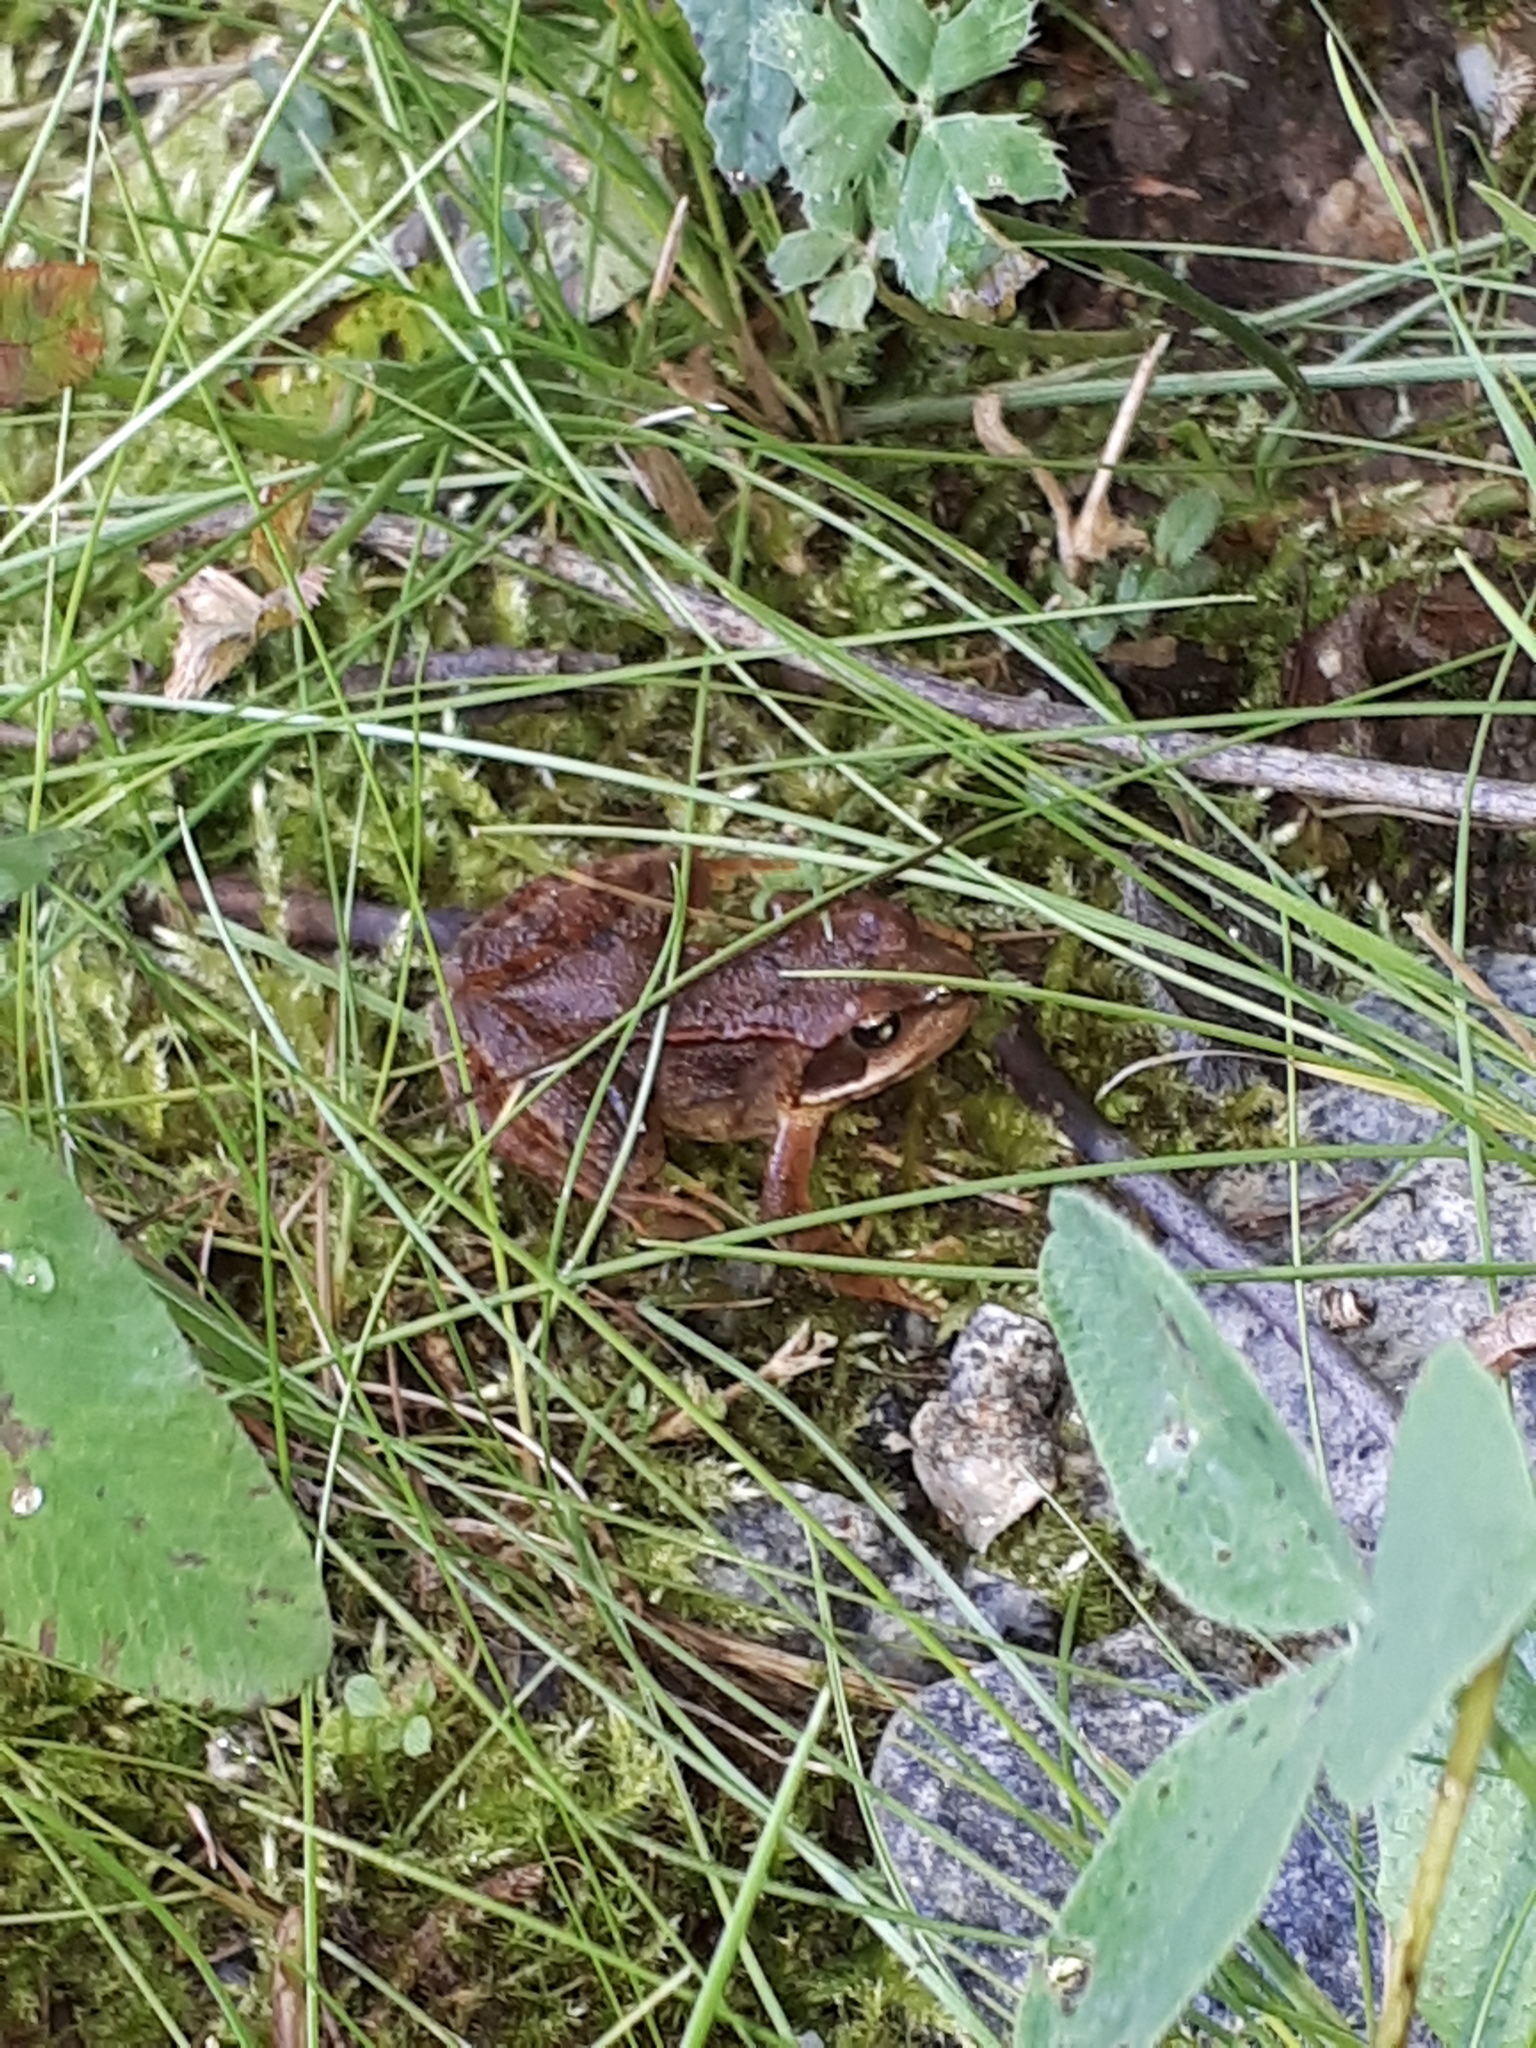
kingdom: Animalia
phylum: Chordata
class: Amphibia
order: Anura
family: Ranidae
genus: Rana
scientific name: Rana temporaria
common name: Common frog
